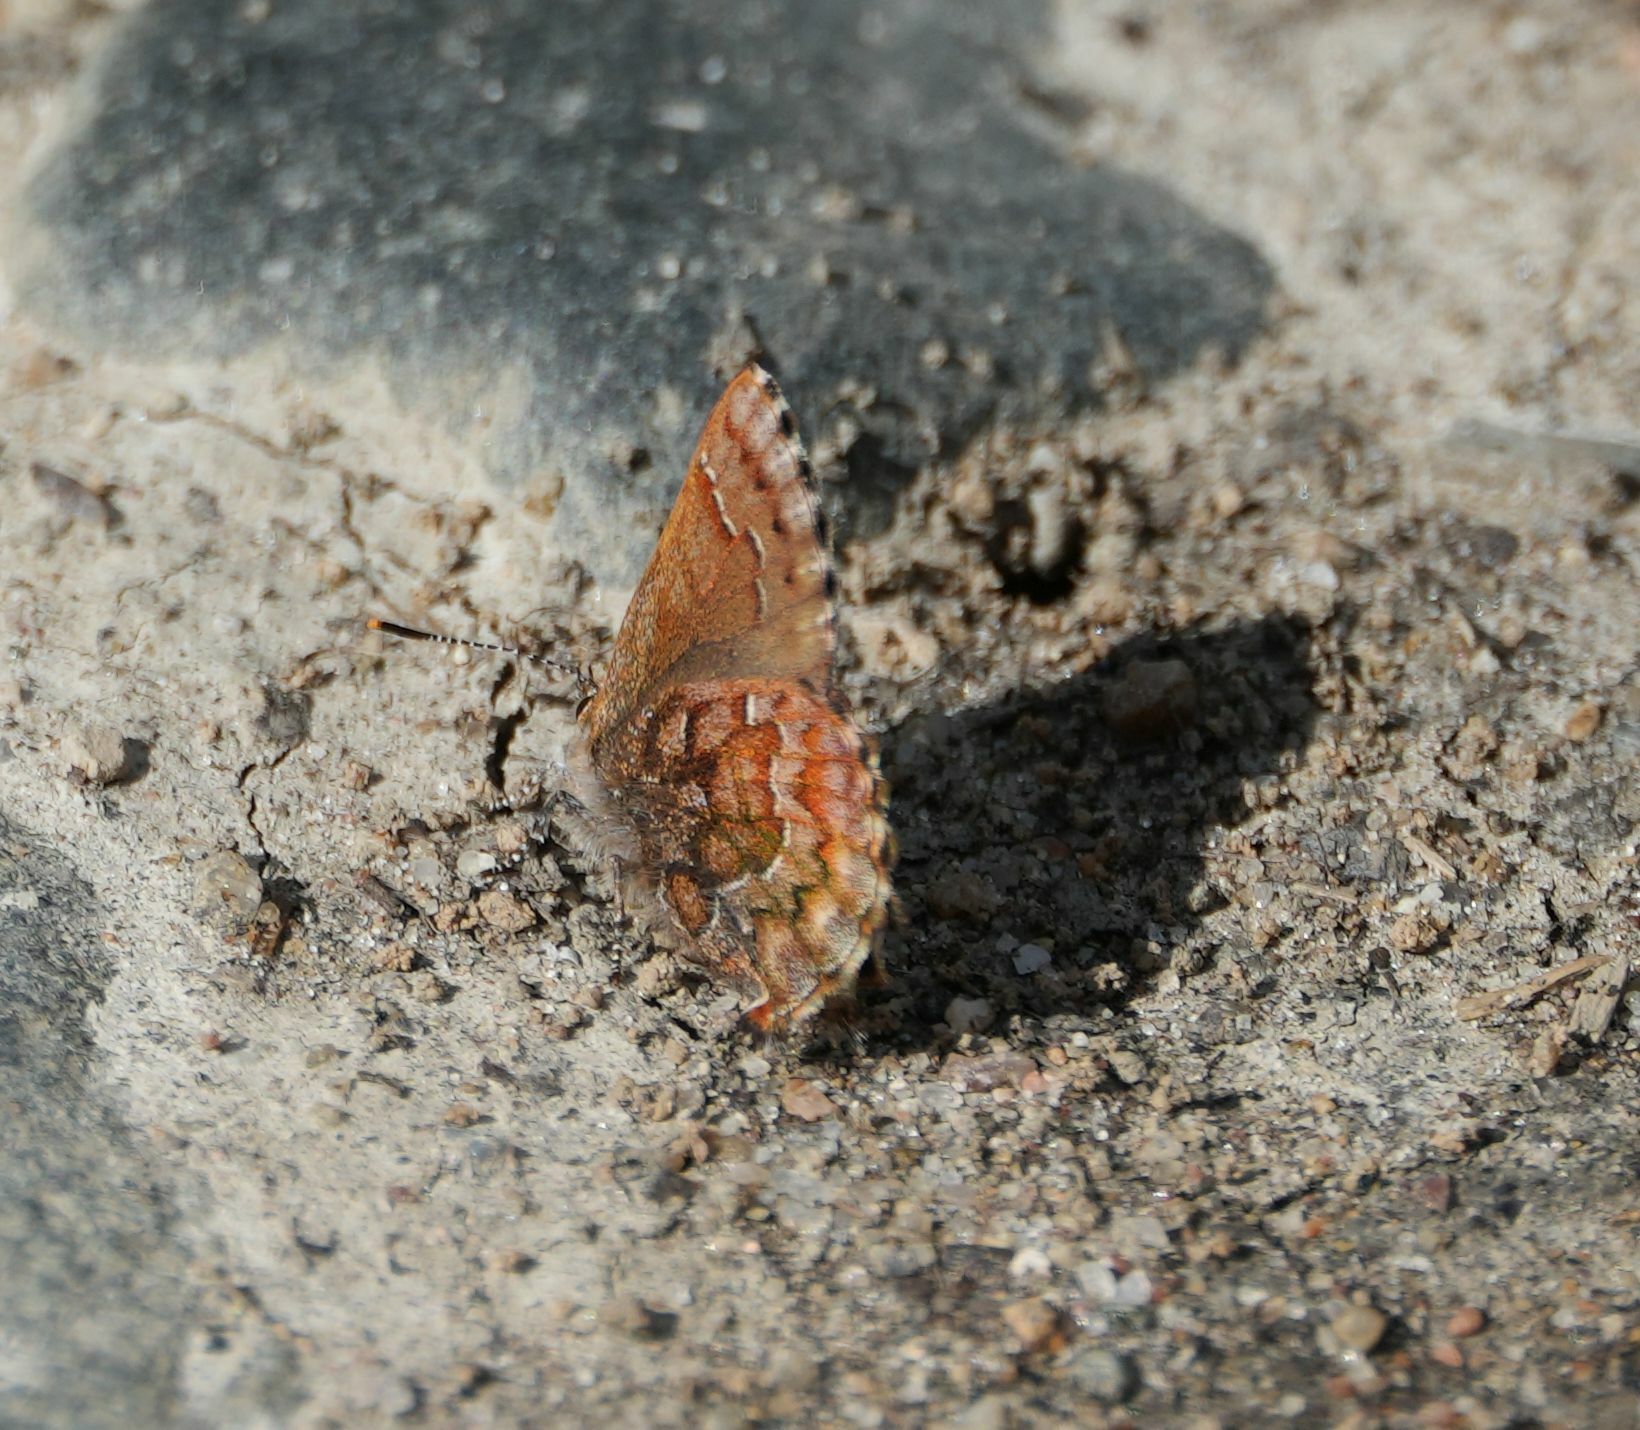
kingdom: Animalia
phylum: Arthropoda
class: Insecta
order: Lepidoptera
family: Lycaenidae
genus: Incisalia
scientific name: Incisalia niphon
